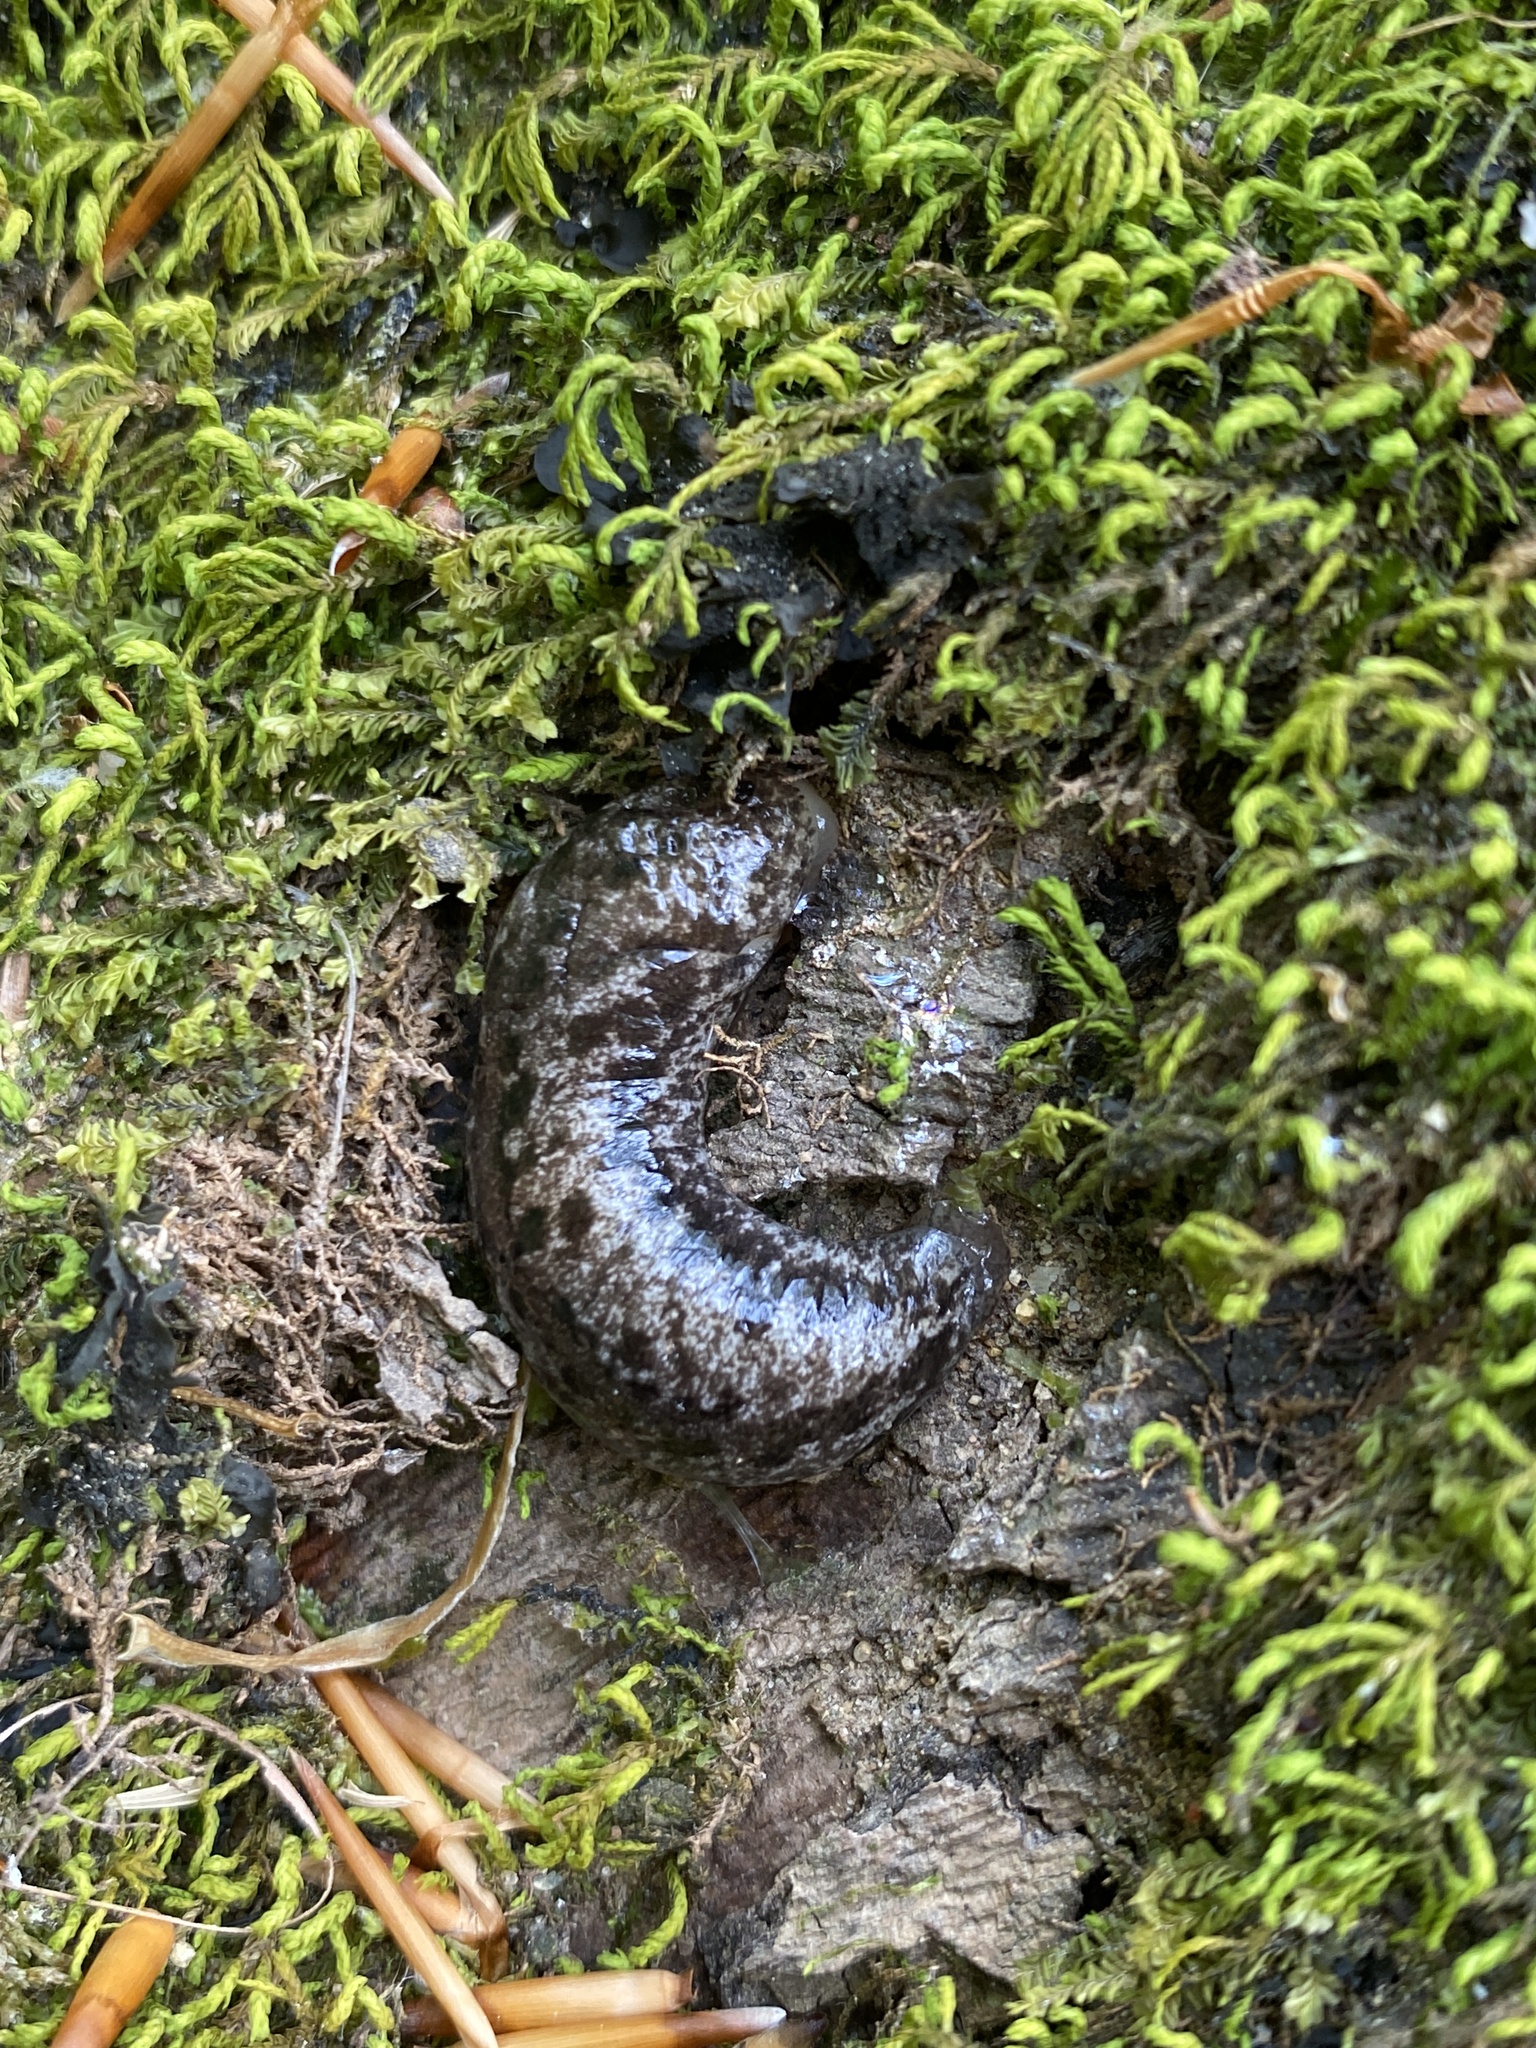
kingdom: Animalia
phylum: Mollusca
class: Gastropoda
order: Stylommatophora
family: Philomycidae
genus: Megapallifera
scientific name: Megapallifera mutabilis
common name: Changeable mantleslug
